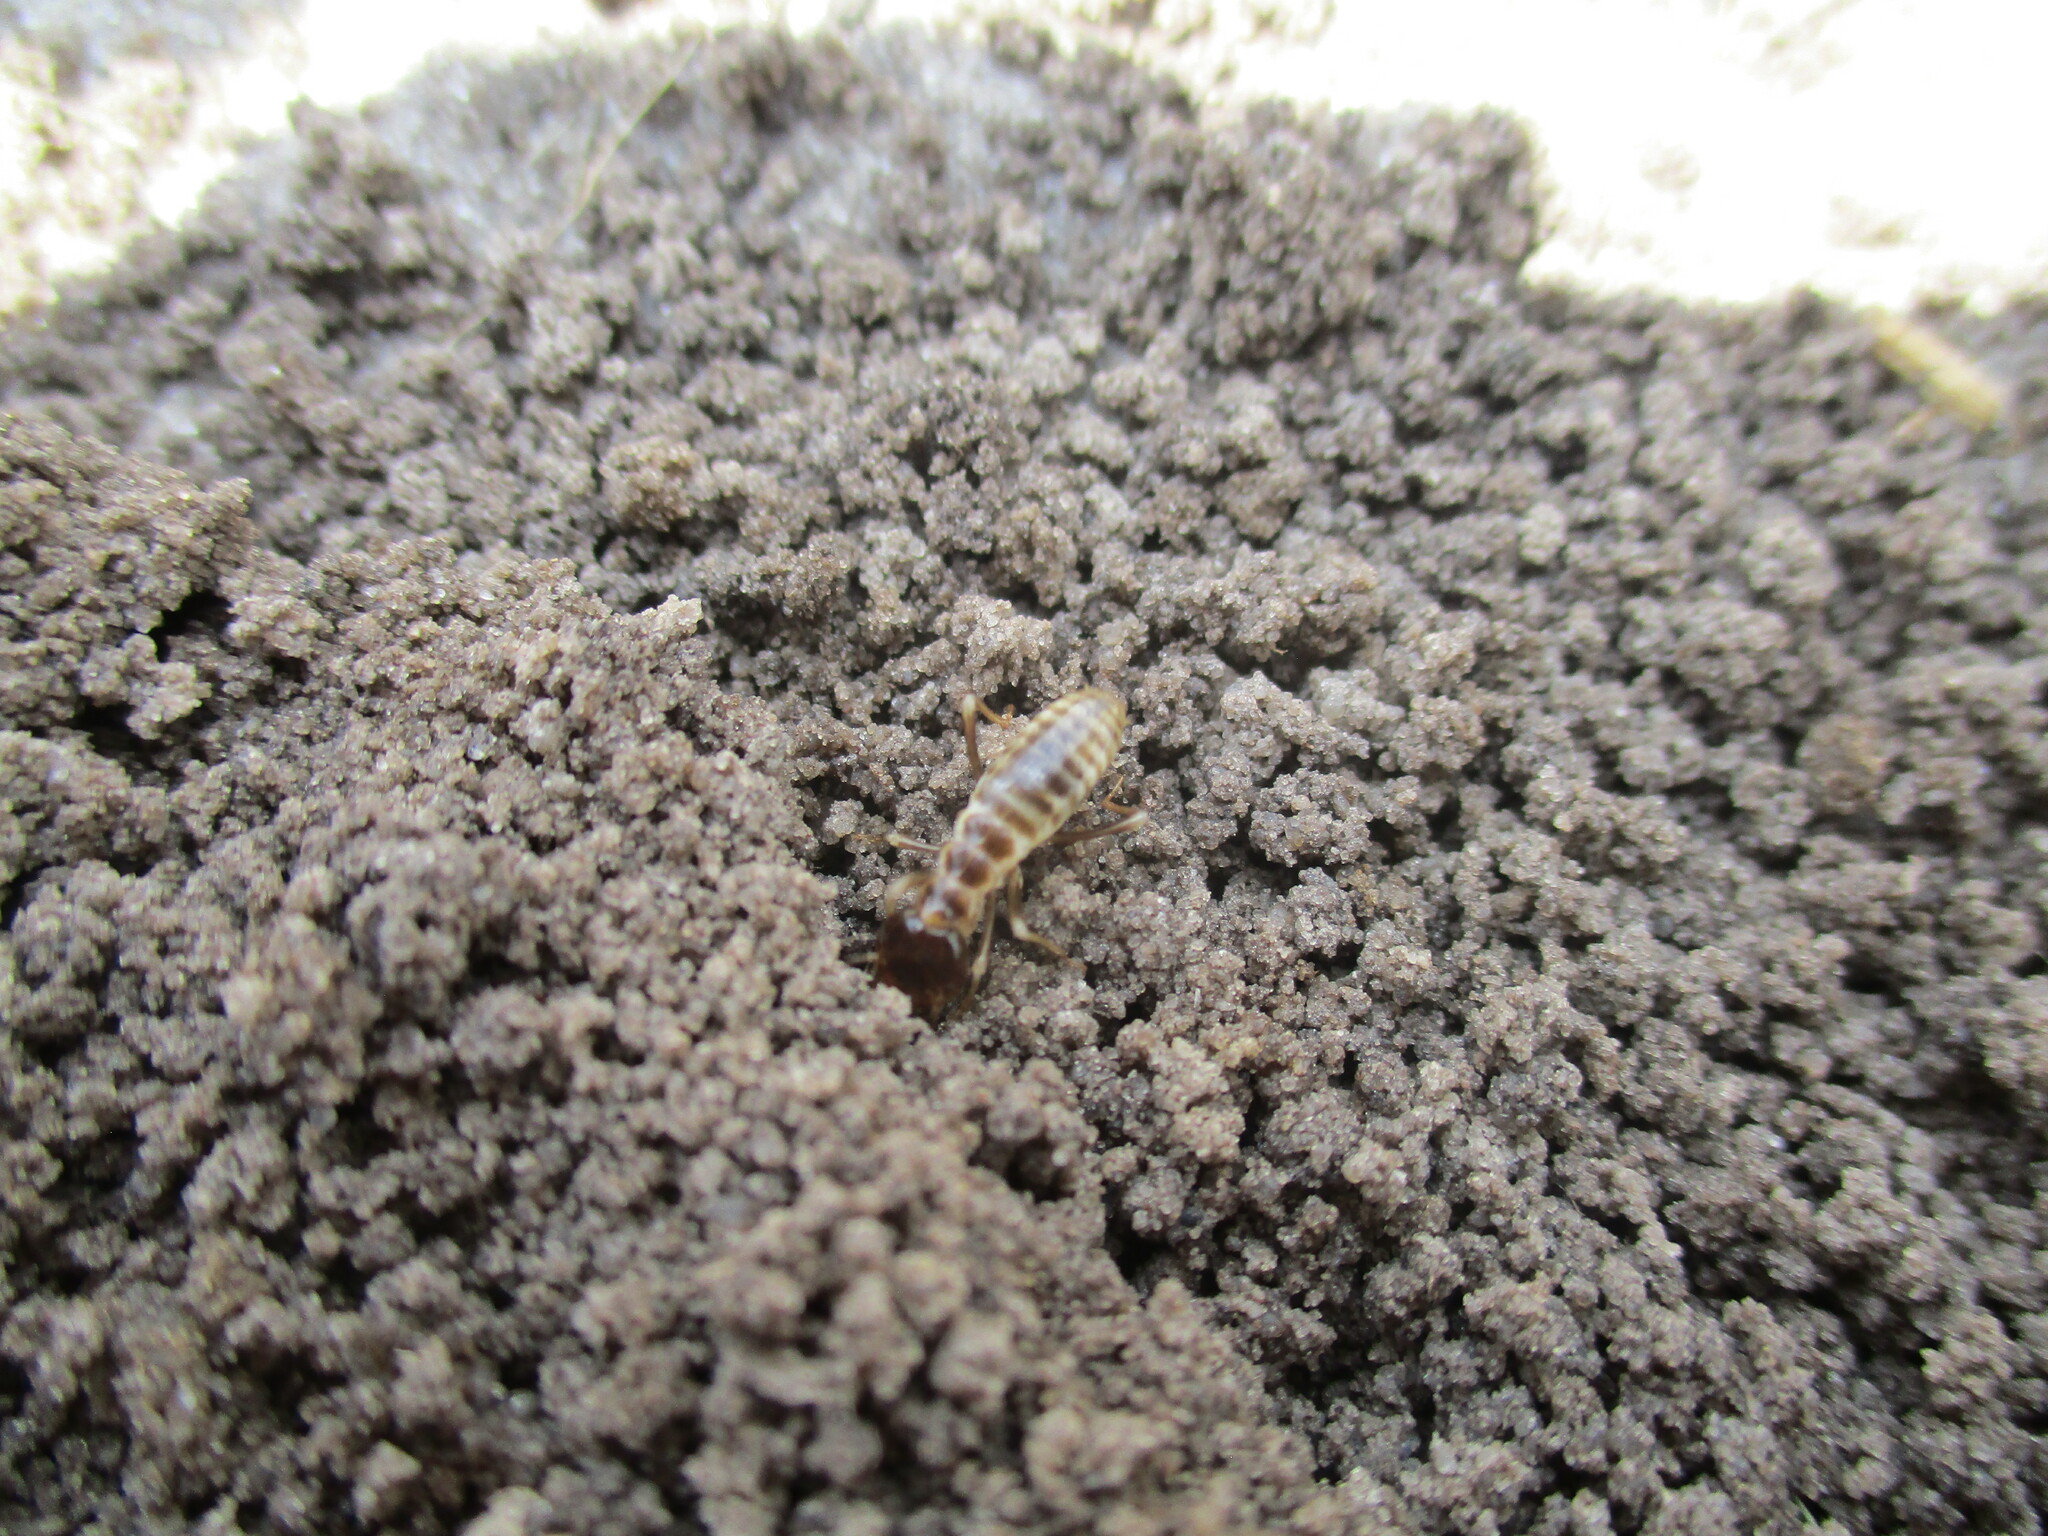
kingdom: Animalia
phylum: Arthropoda
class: Insecta
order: Blattodea
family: Hodotermitidae
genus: Hodotermes
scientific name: Hodotermes mossambicus
